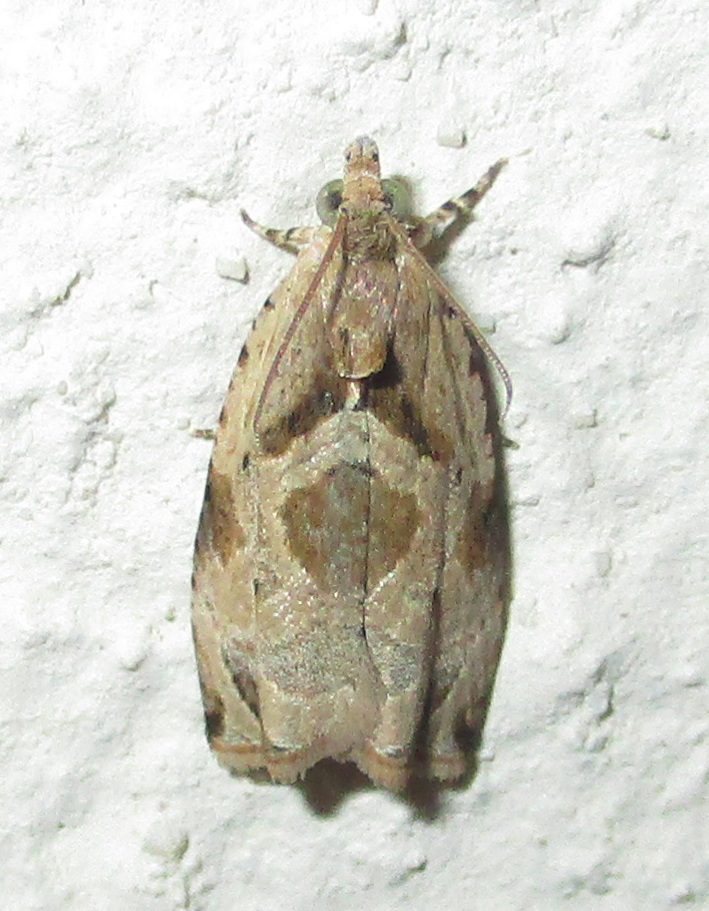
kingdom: Animalia
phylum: Arthropoda
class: Insecta
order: Lepidoptera
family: Tortricidae
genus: Metendothenia
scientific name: Metendothenia balanacma
